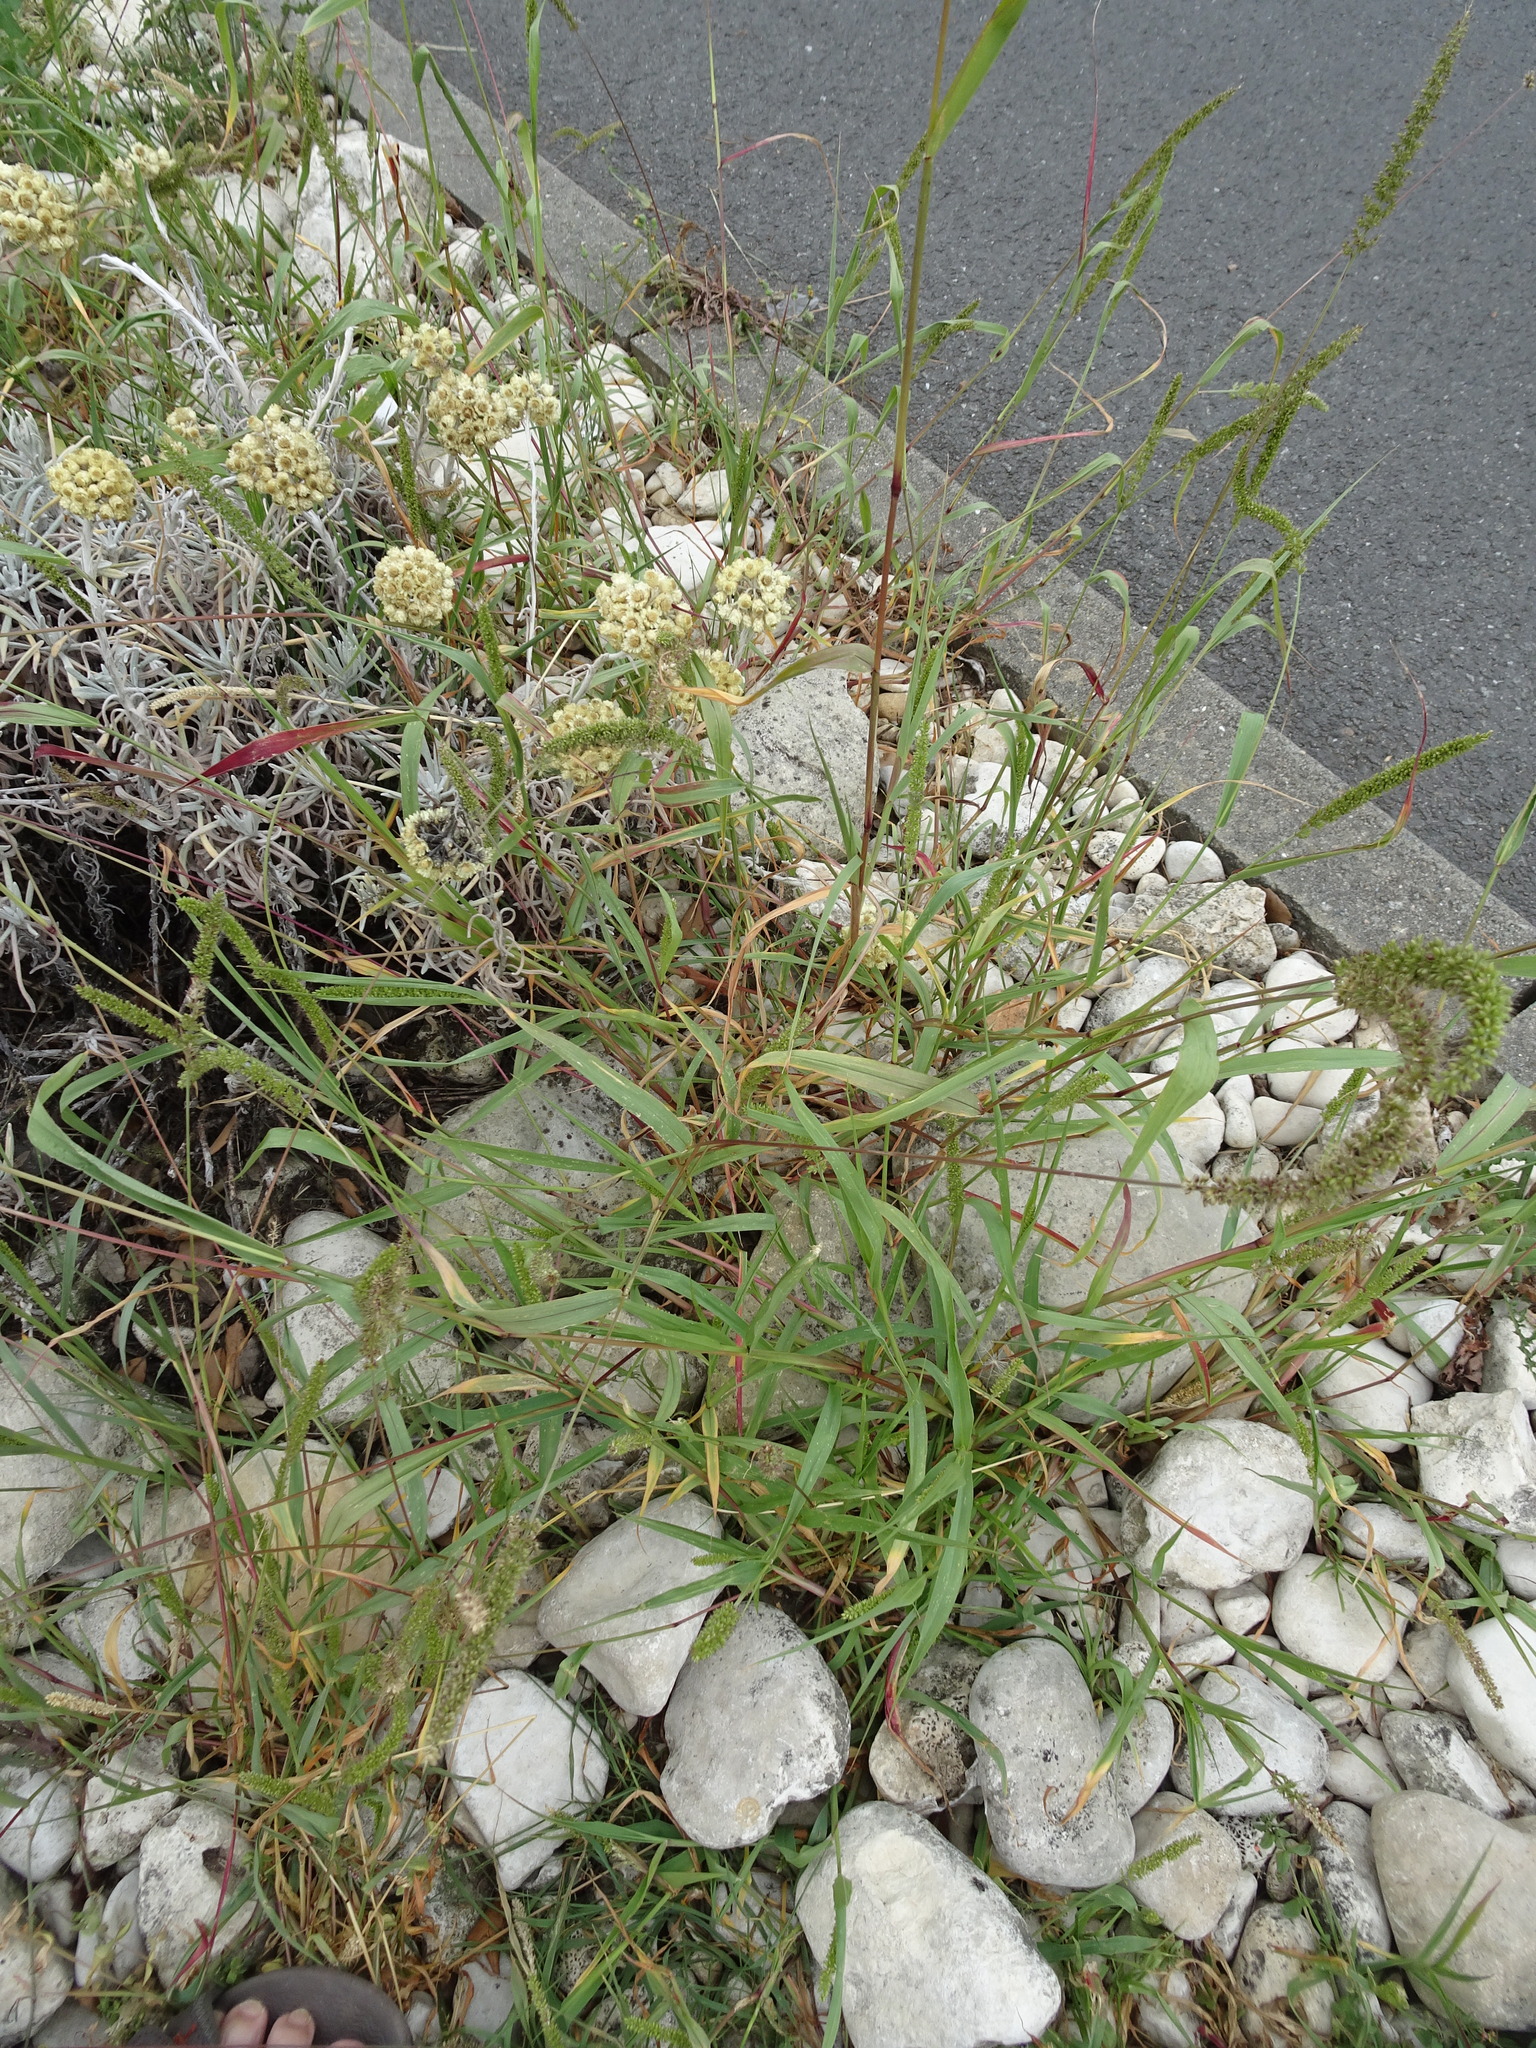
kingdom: Plantae
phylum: Tracheophyta
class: Liliopsida
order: Poales
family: Poaceae
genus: Setaria
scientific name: Setaria verticillata
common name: Hooked bristlegrass
